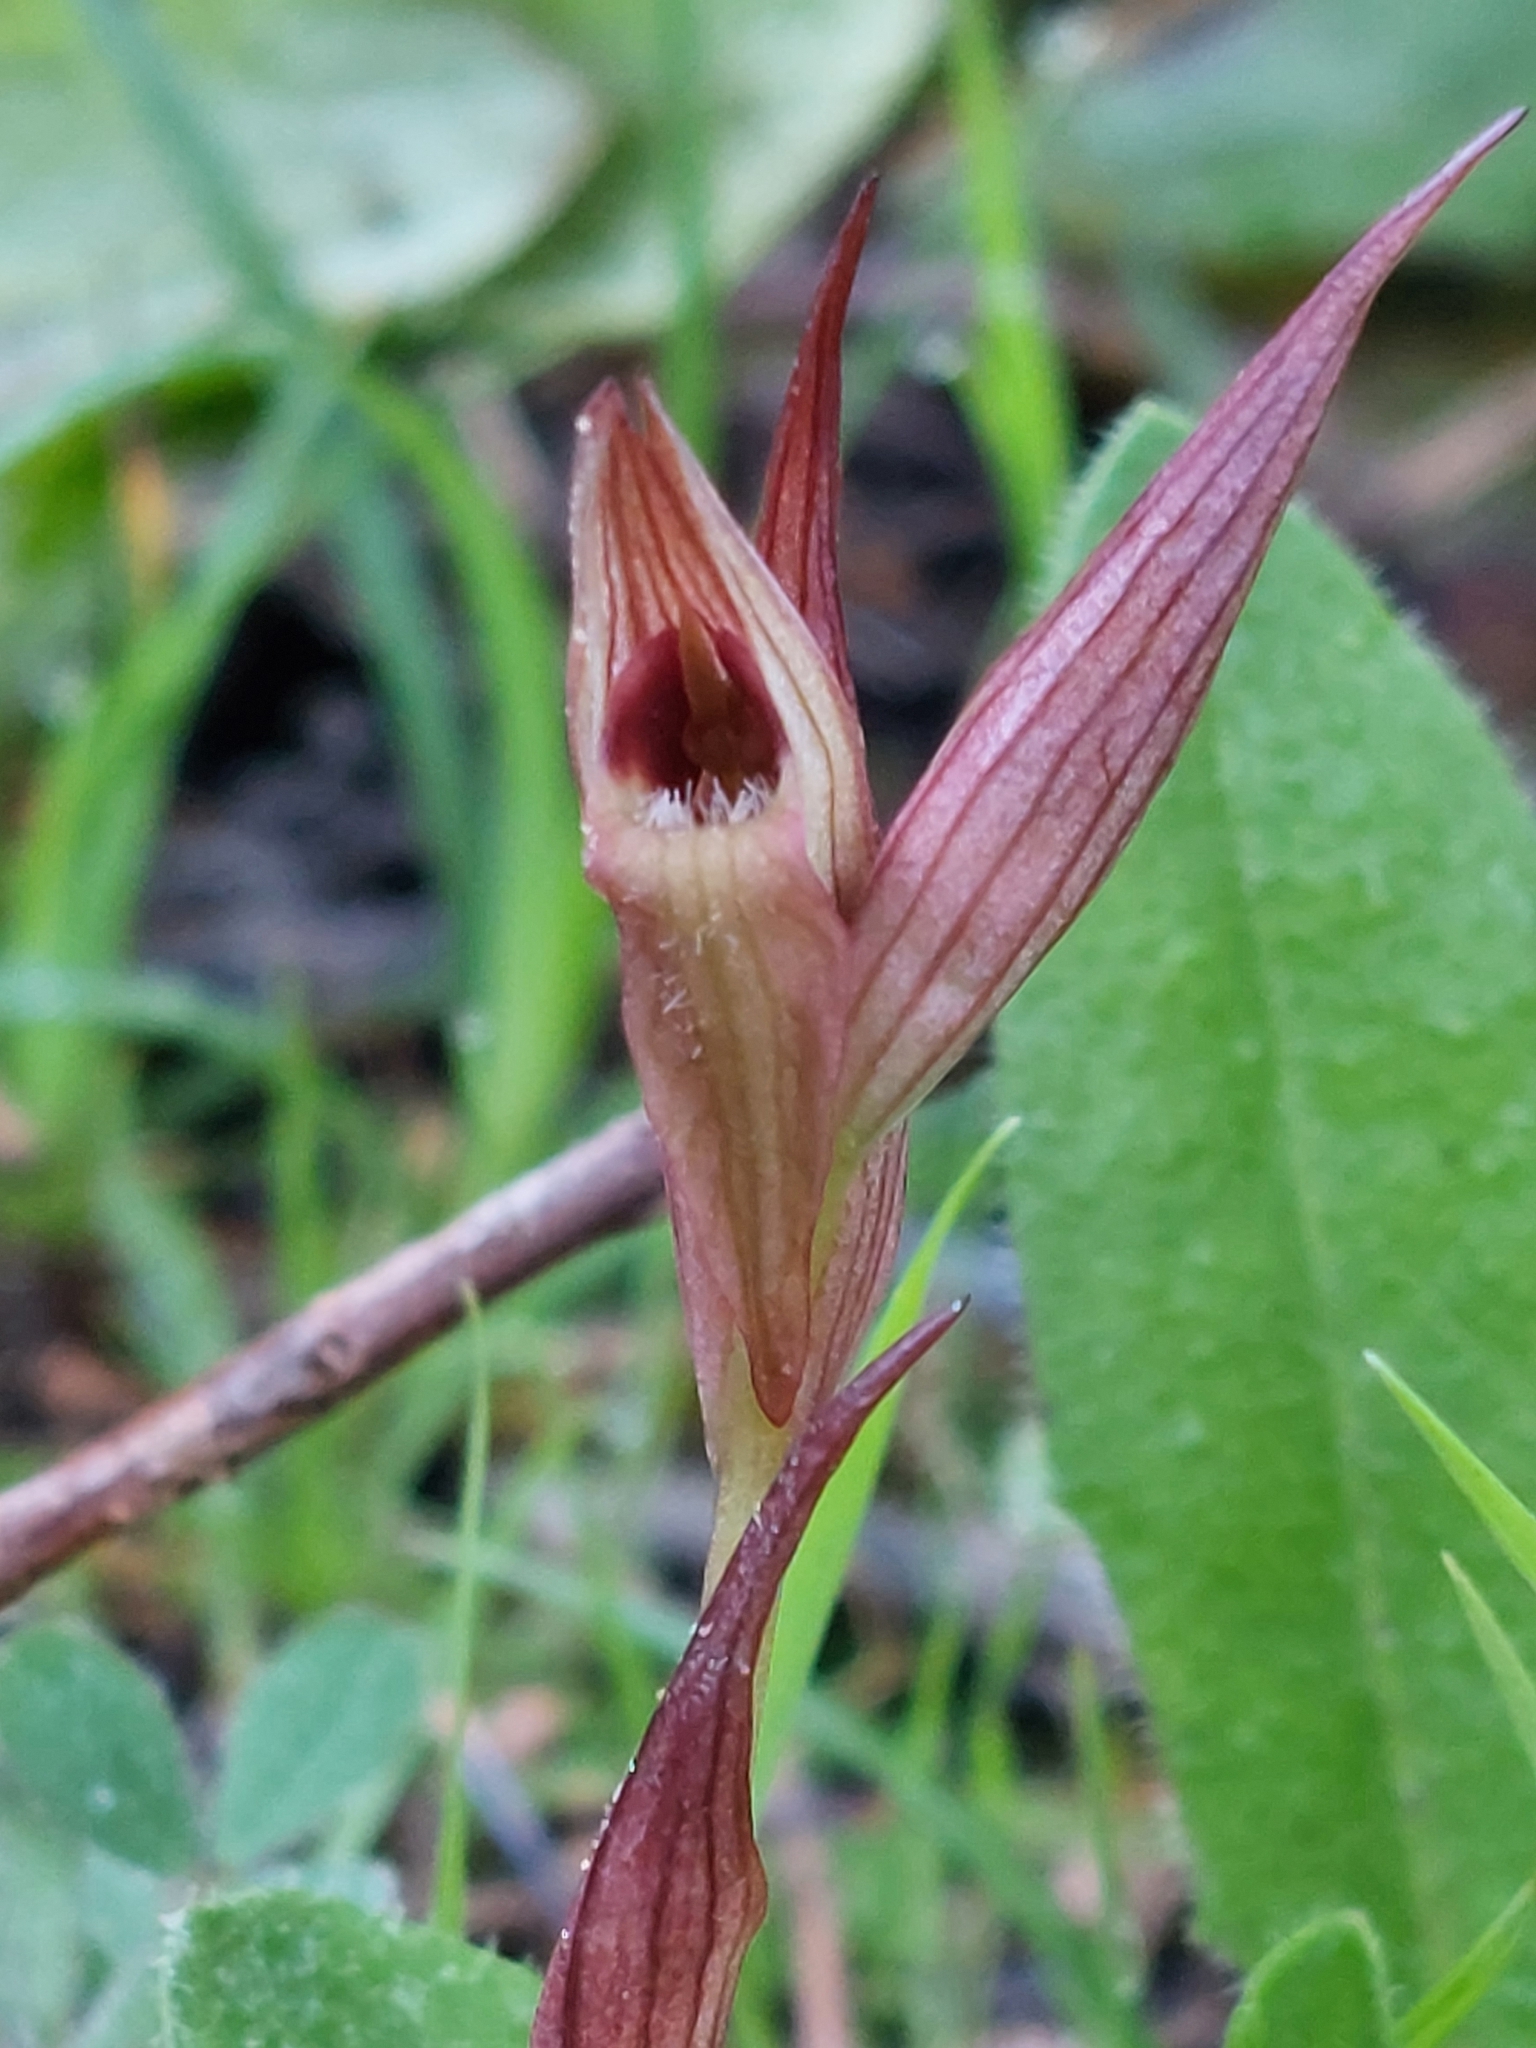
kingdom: Plantae
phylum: Tracheophyta
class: Liliopsida
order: Asparagales
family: Orchidaceae
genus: Serapias
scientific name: Serapias bergonii
